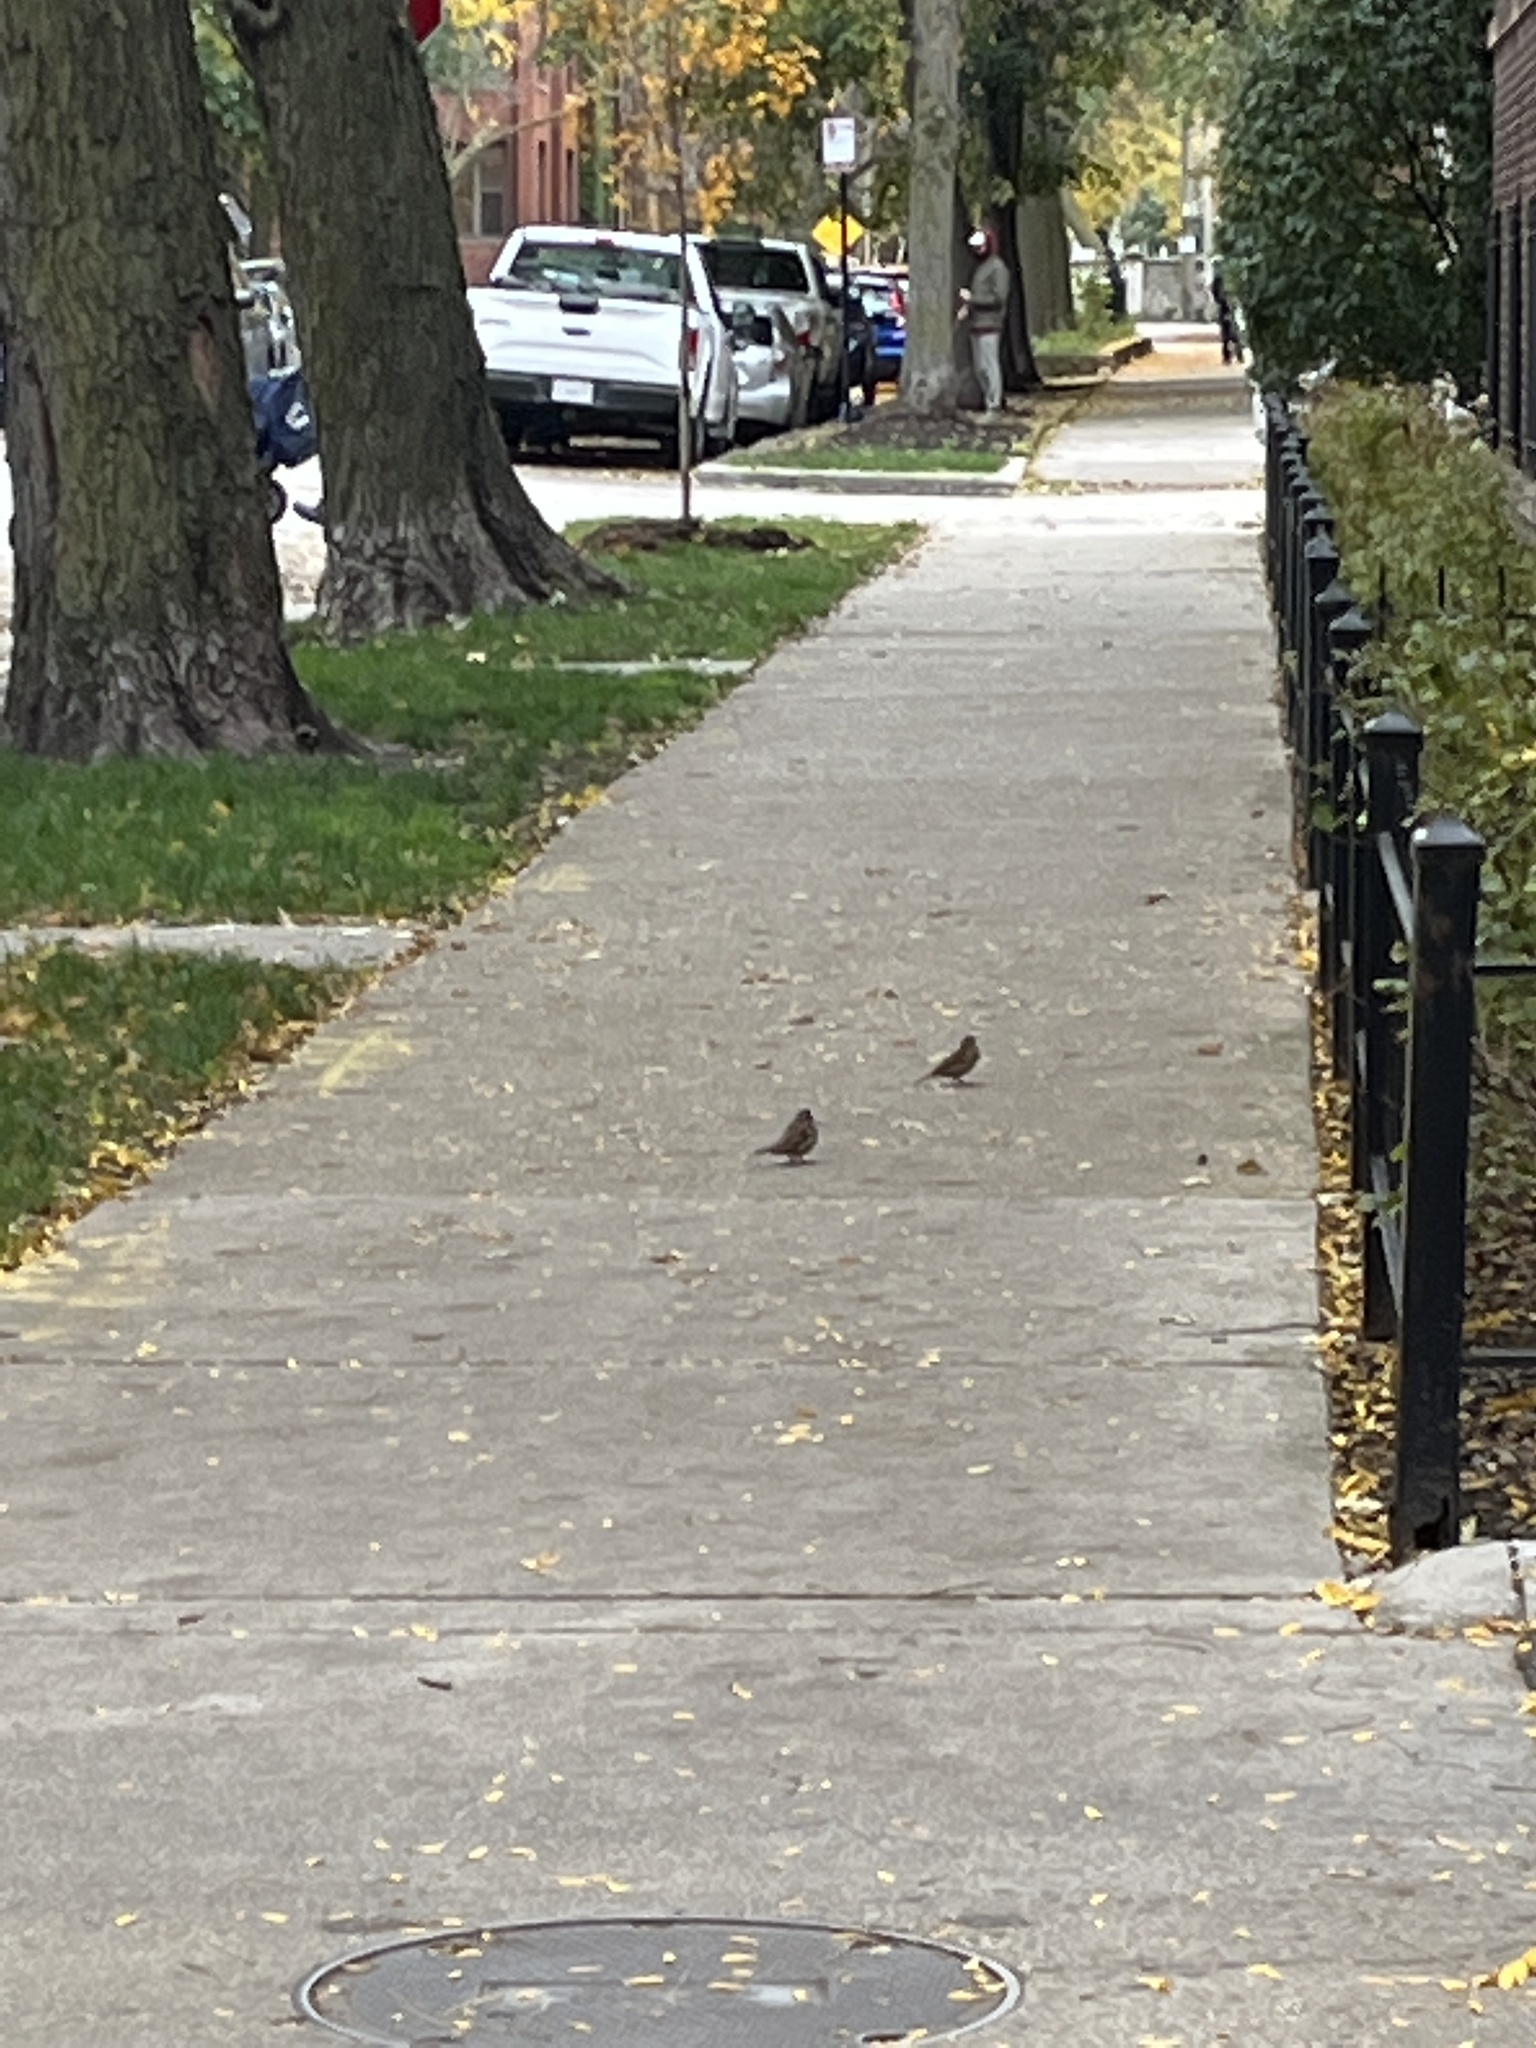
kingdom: Animalia
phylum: Chordata
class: Aves
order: Passeriformes
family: Passeridae
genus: Passer
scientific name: Passer domesticus
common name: House sparrow
